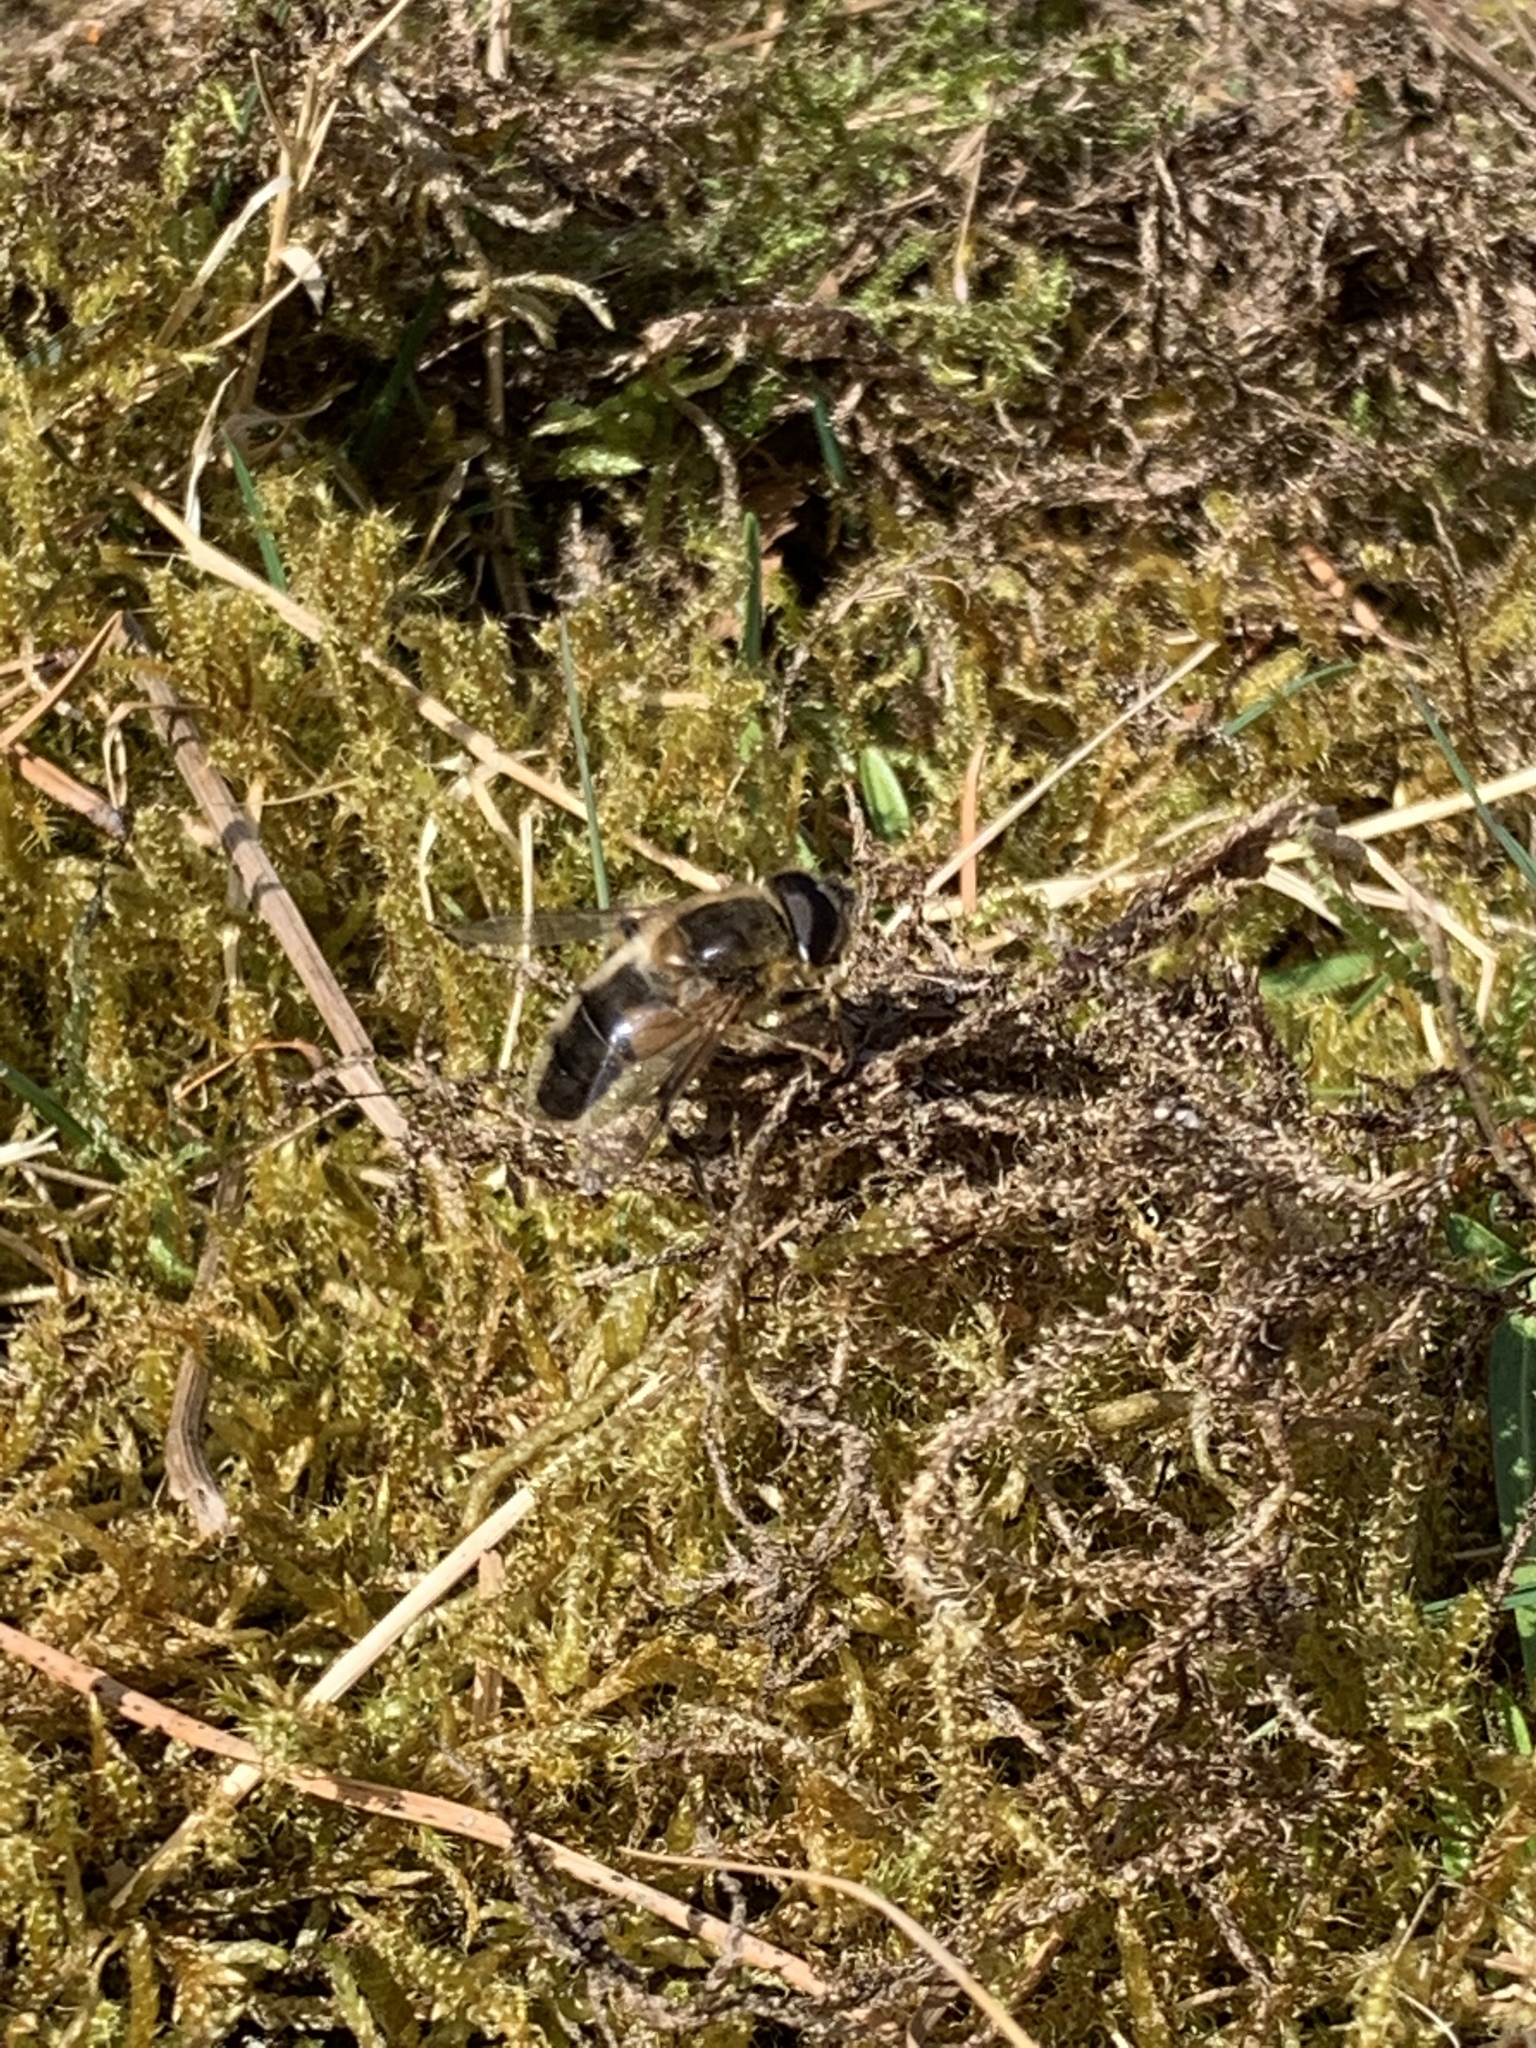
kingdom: Animalia
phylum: Arthropoda
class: Insecta
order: Diptera
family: Syrphidae
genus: Eristalis
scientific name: Eristalis pertinax
